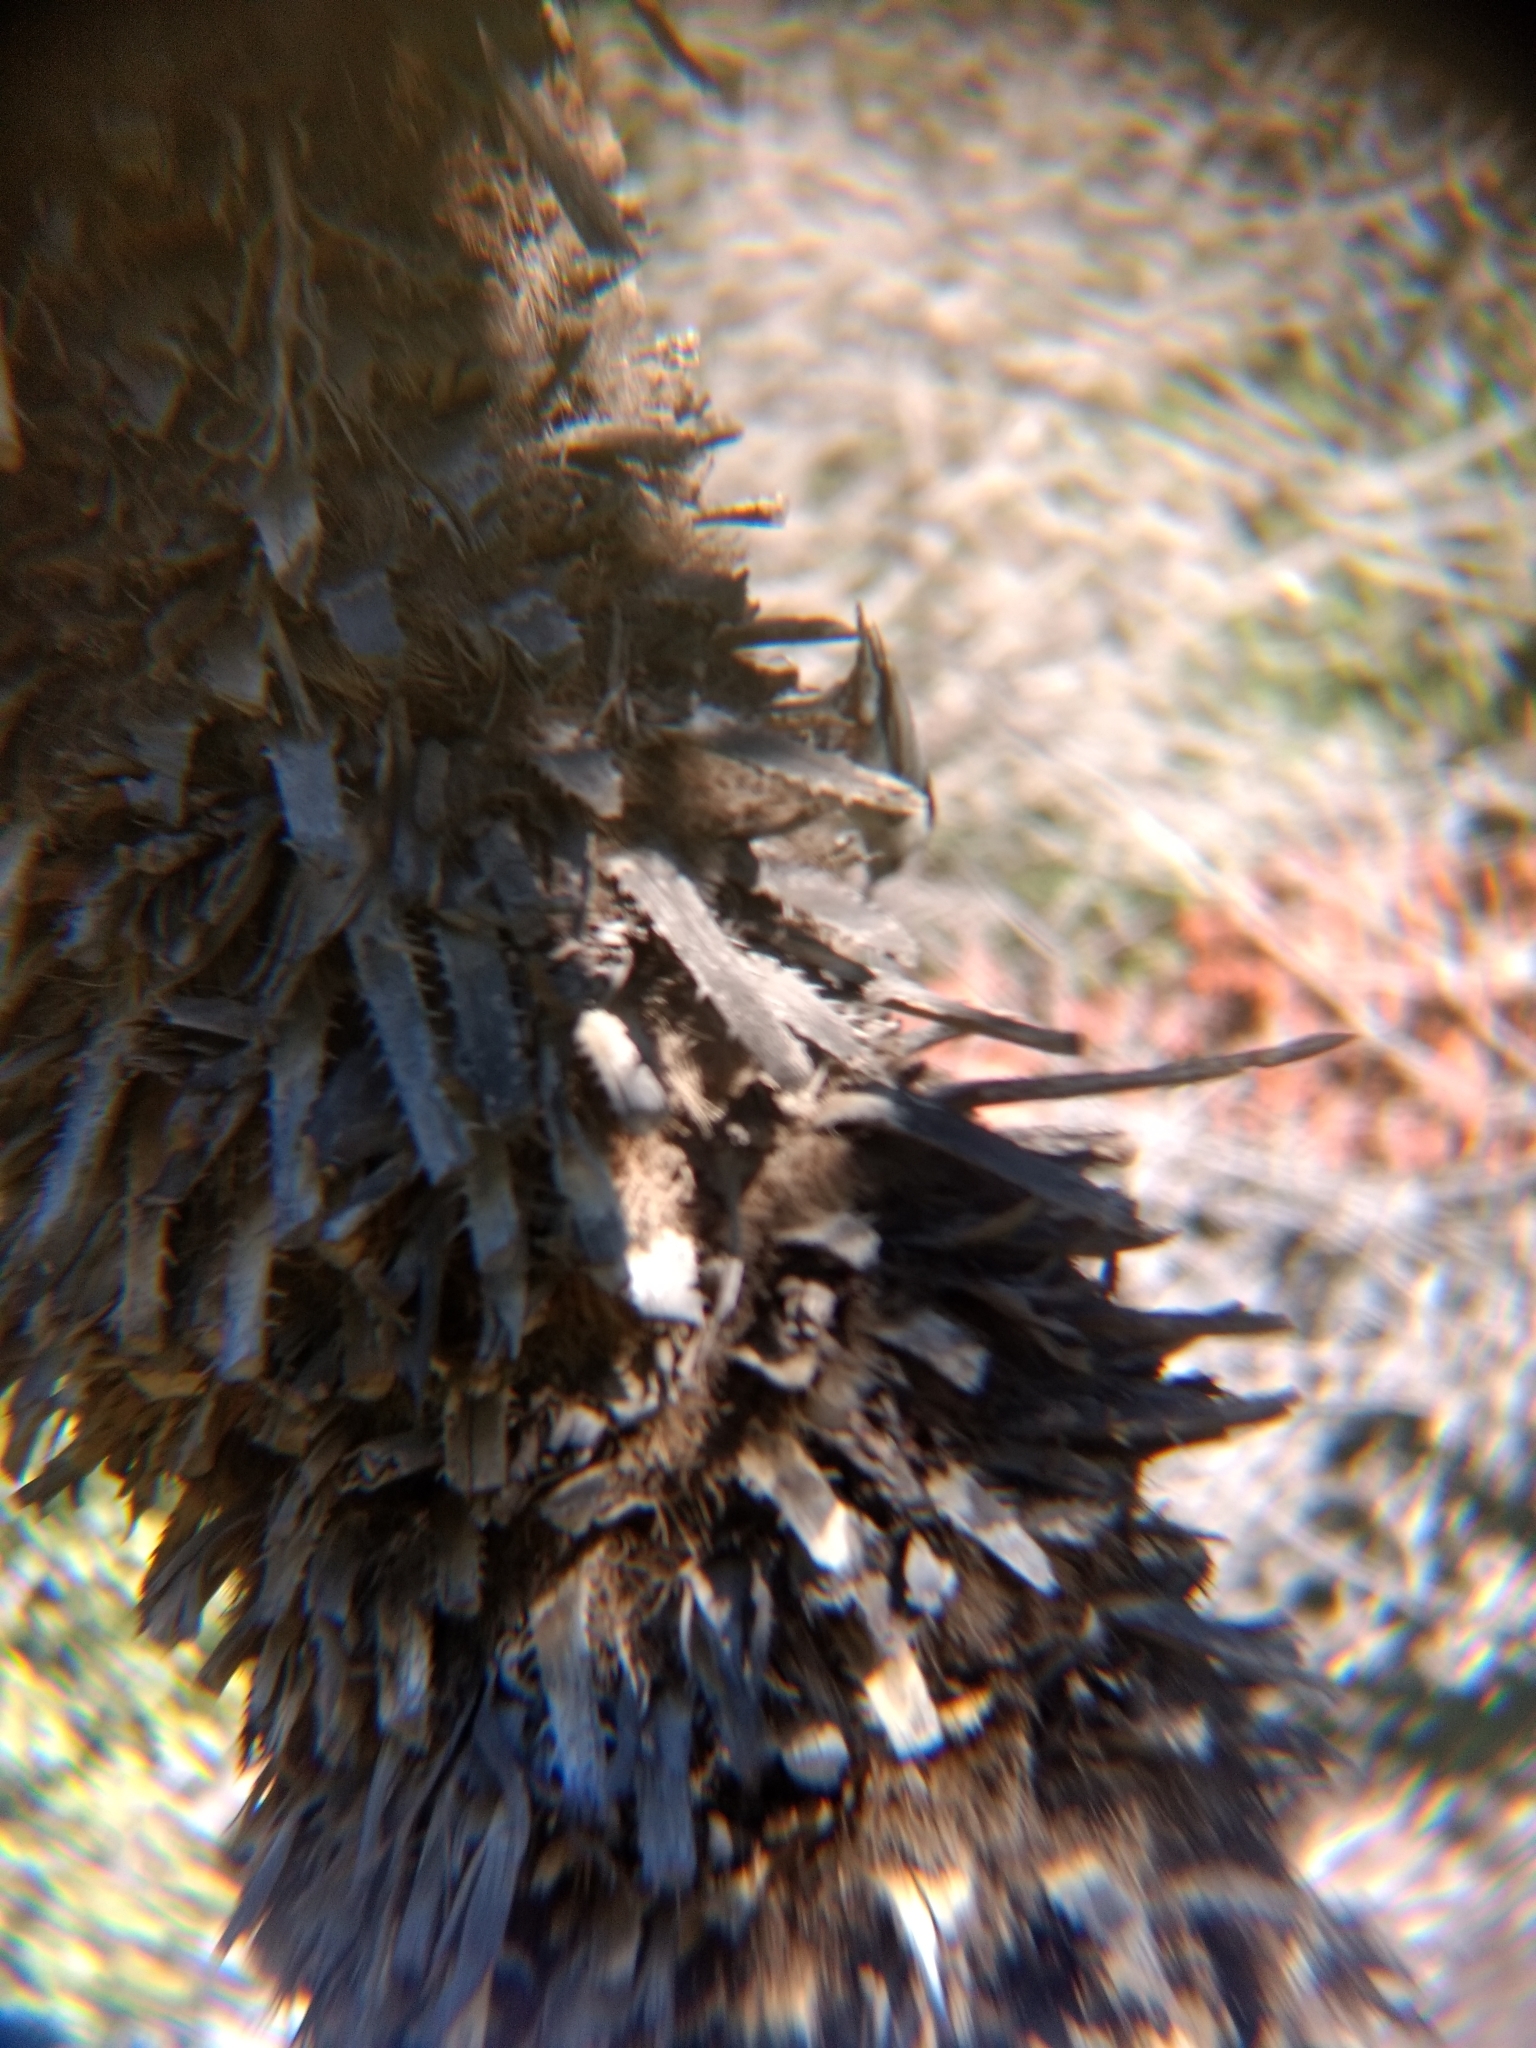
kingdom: Animalia
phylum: Chordata
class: Aves
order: Passeriformes
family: Sittidae
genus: Sitta
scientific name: Sitta carolinensis
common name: White-breasted nuthatch
